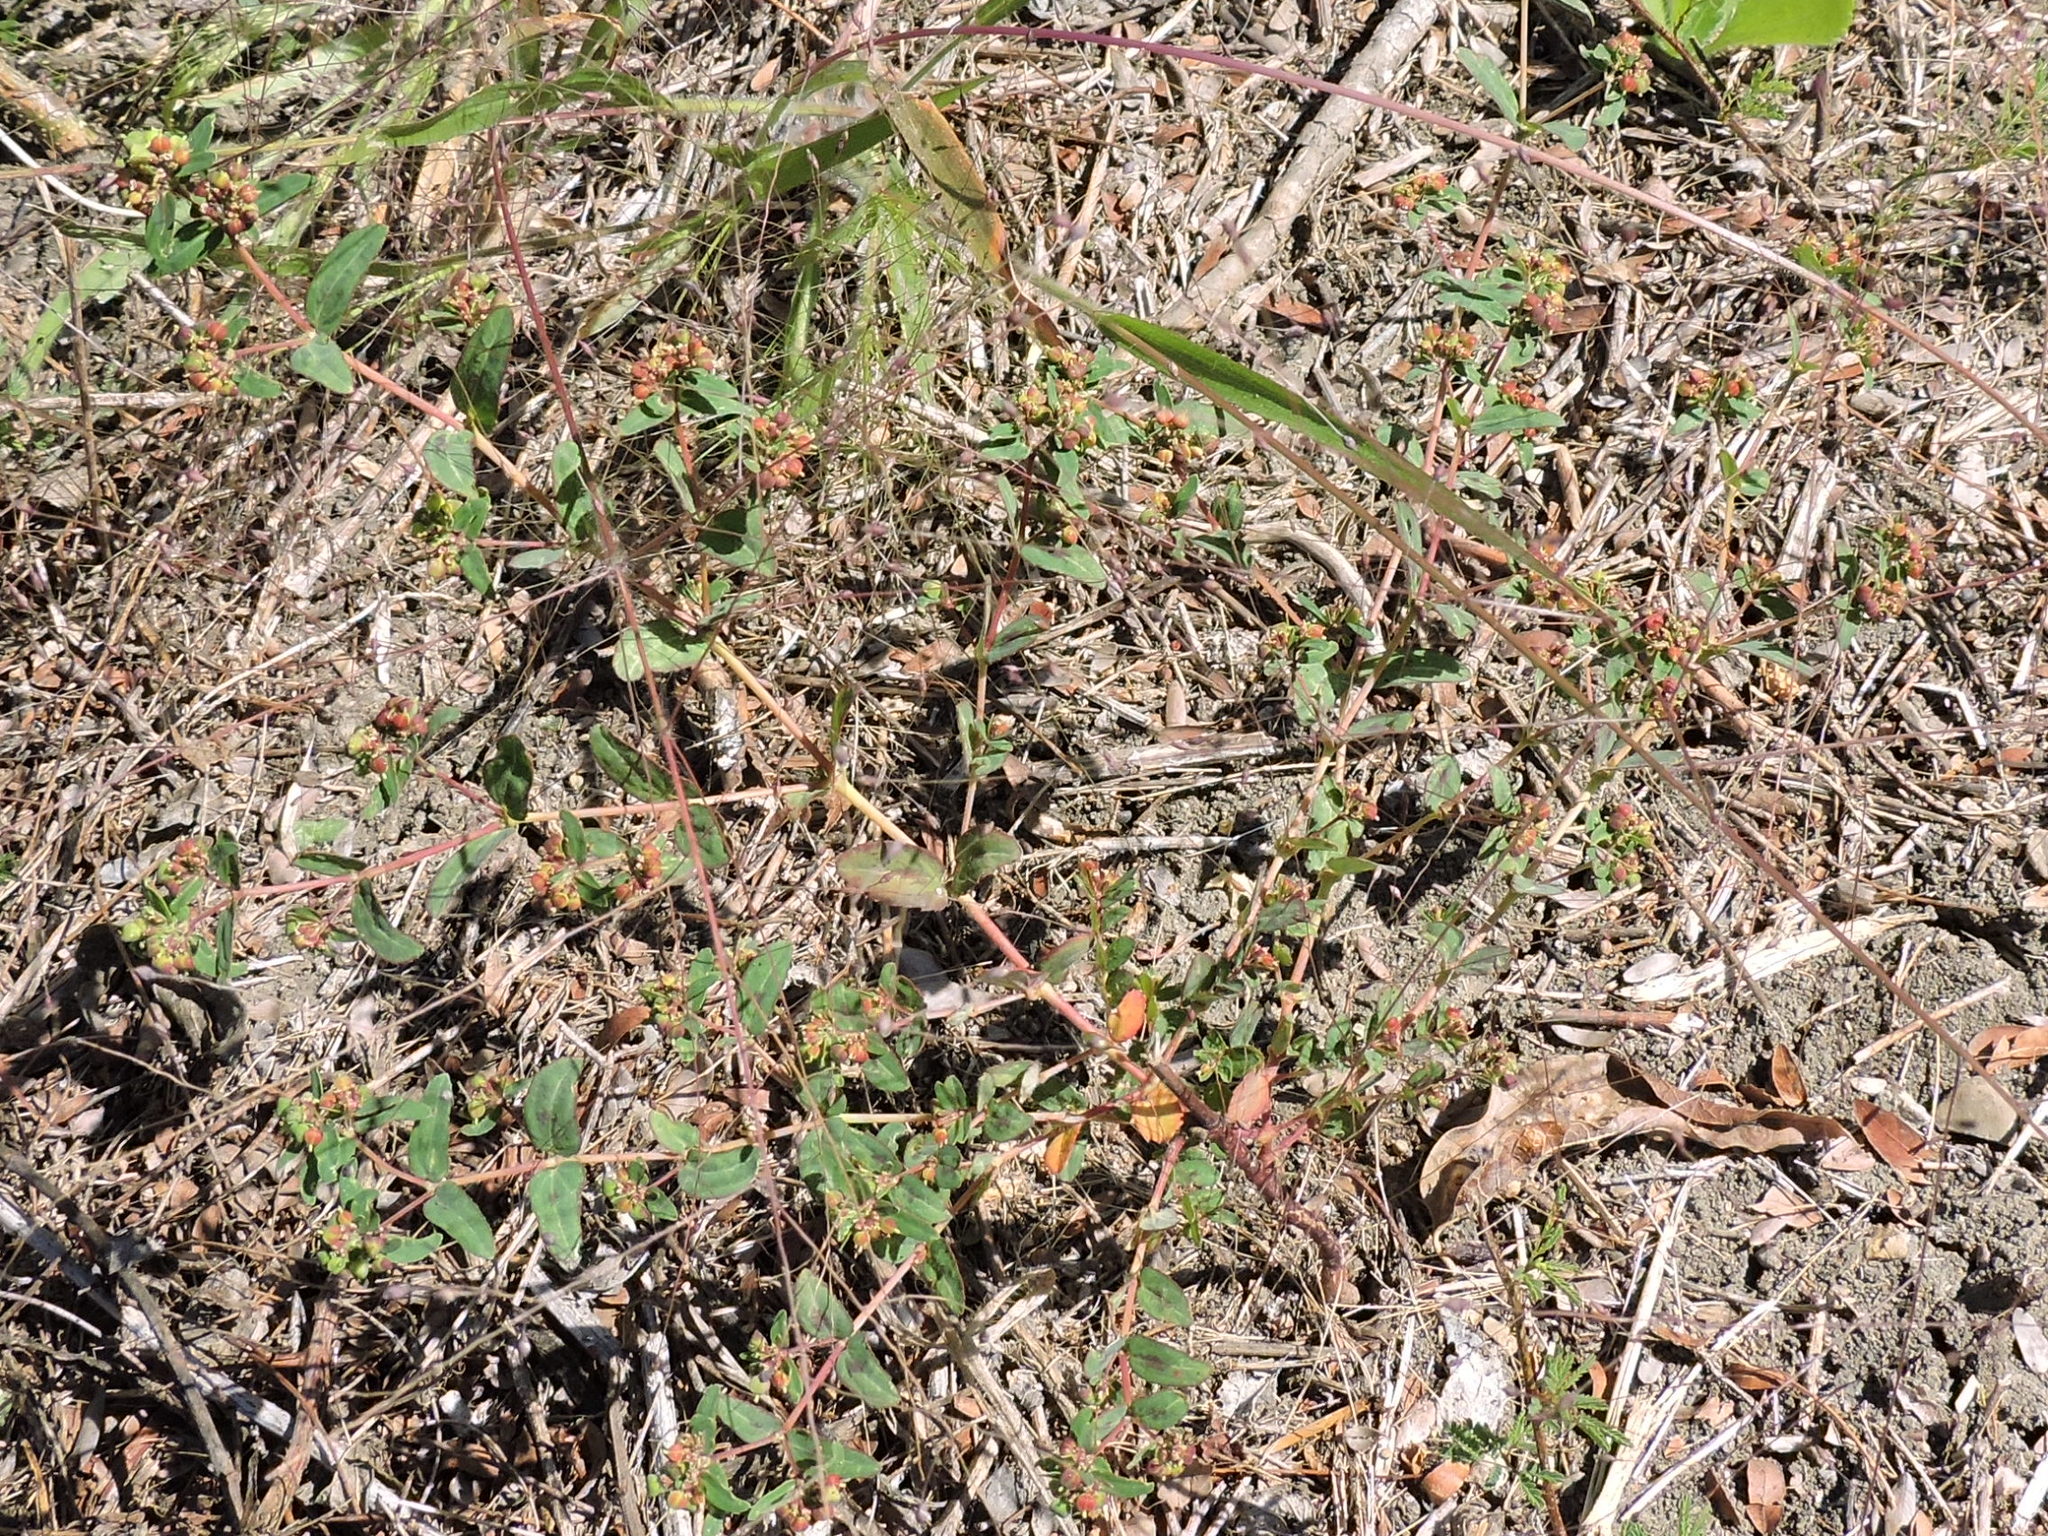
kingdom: Plantae
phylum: Tracheophyta
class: Magnoliopsida
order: Malpighiales
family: Euphorbiaceae
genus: Euphorbia
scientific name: Euphorbia hyssopifolia
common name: Hyssopleaf sandmat
